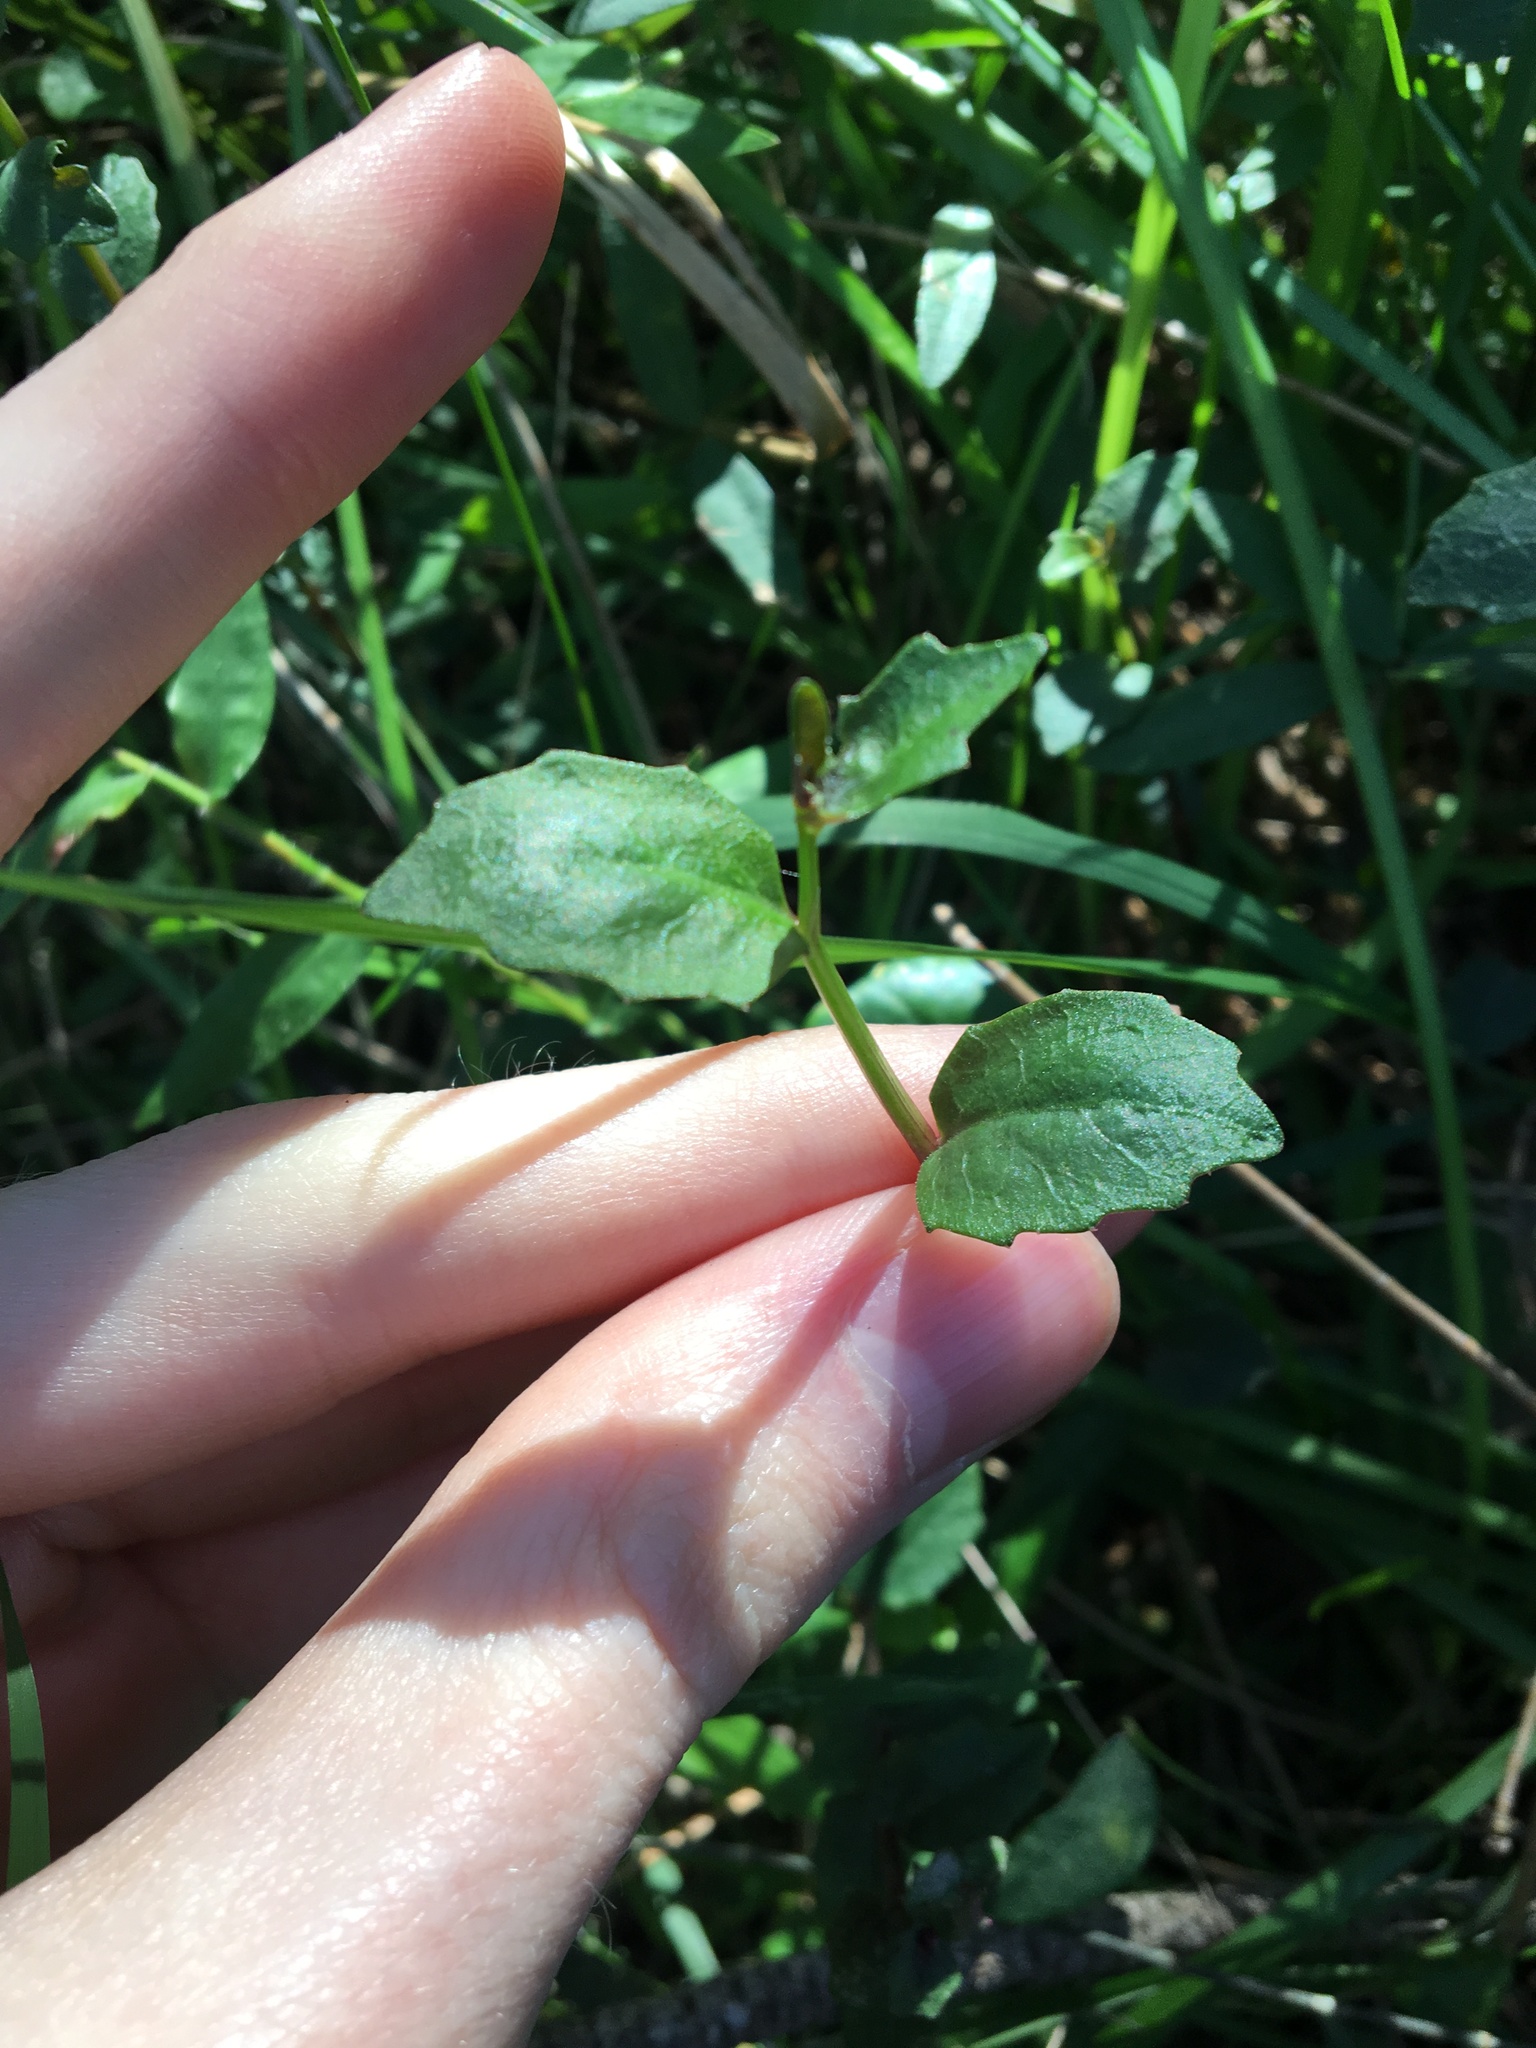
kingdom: Plantae
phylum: Tracheophyta
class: Magnoliopsida
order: Asterales
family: Campanulaceae
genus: Lobelia
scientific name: Lobelia purpurascens
